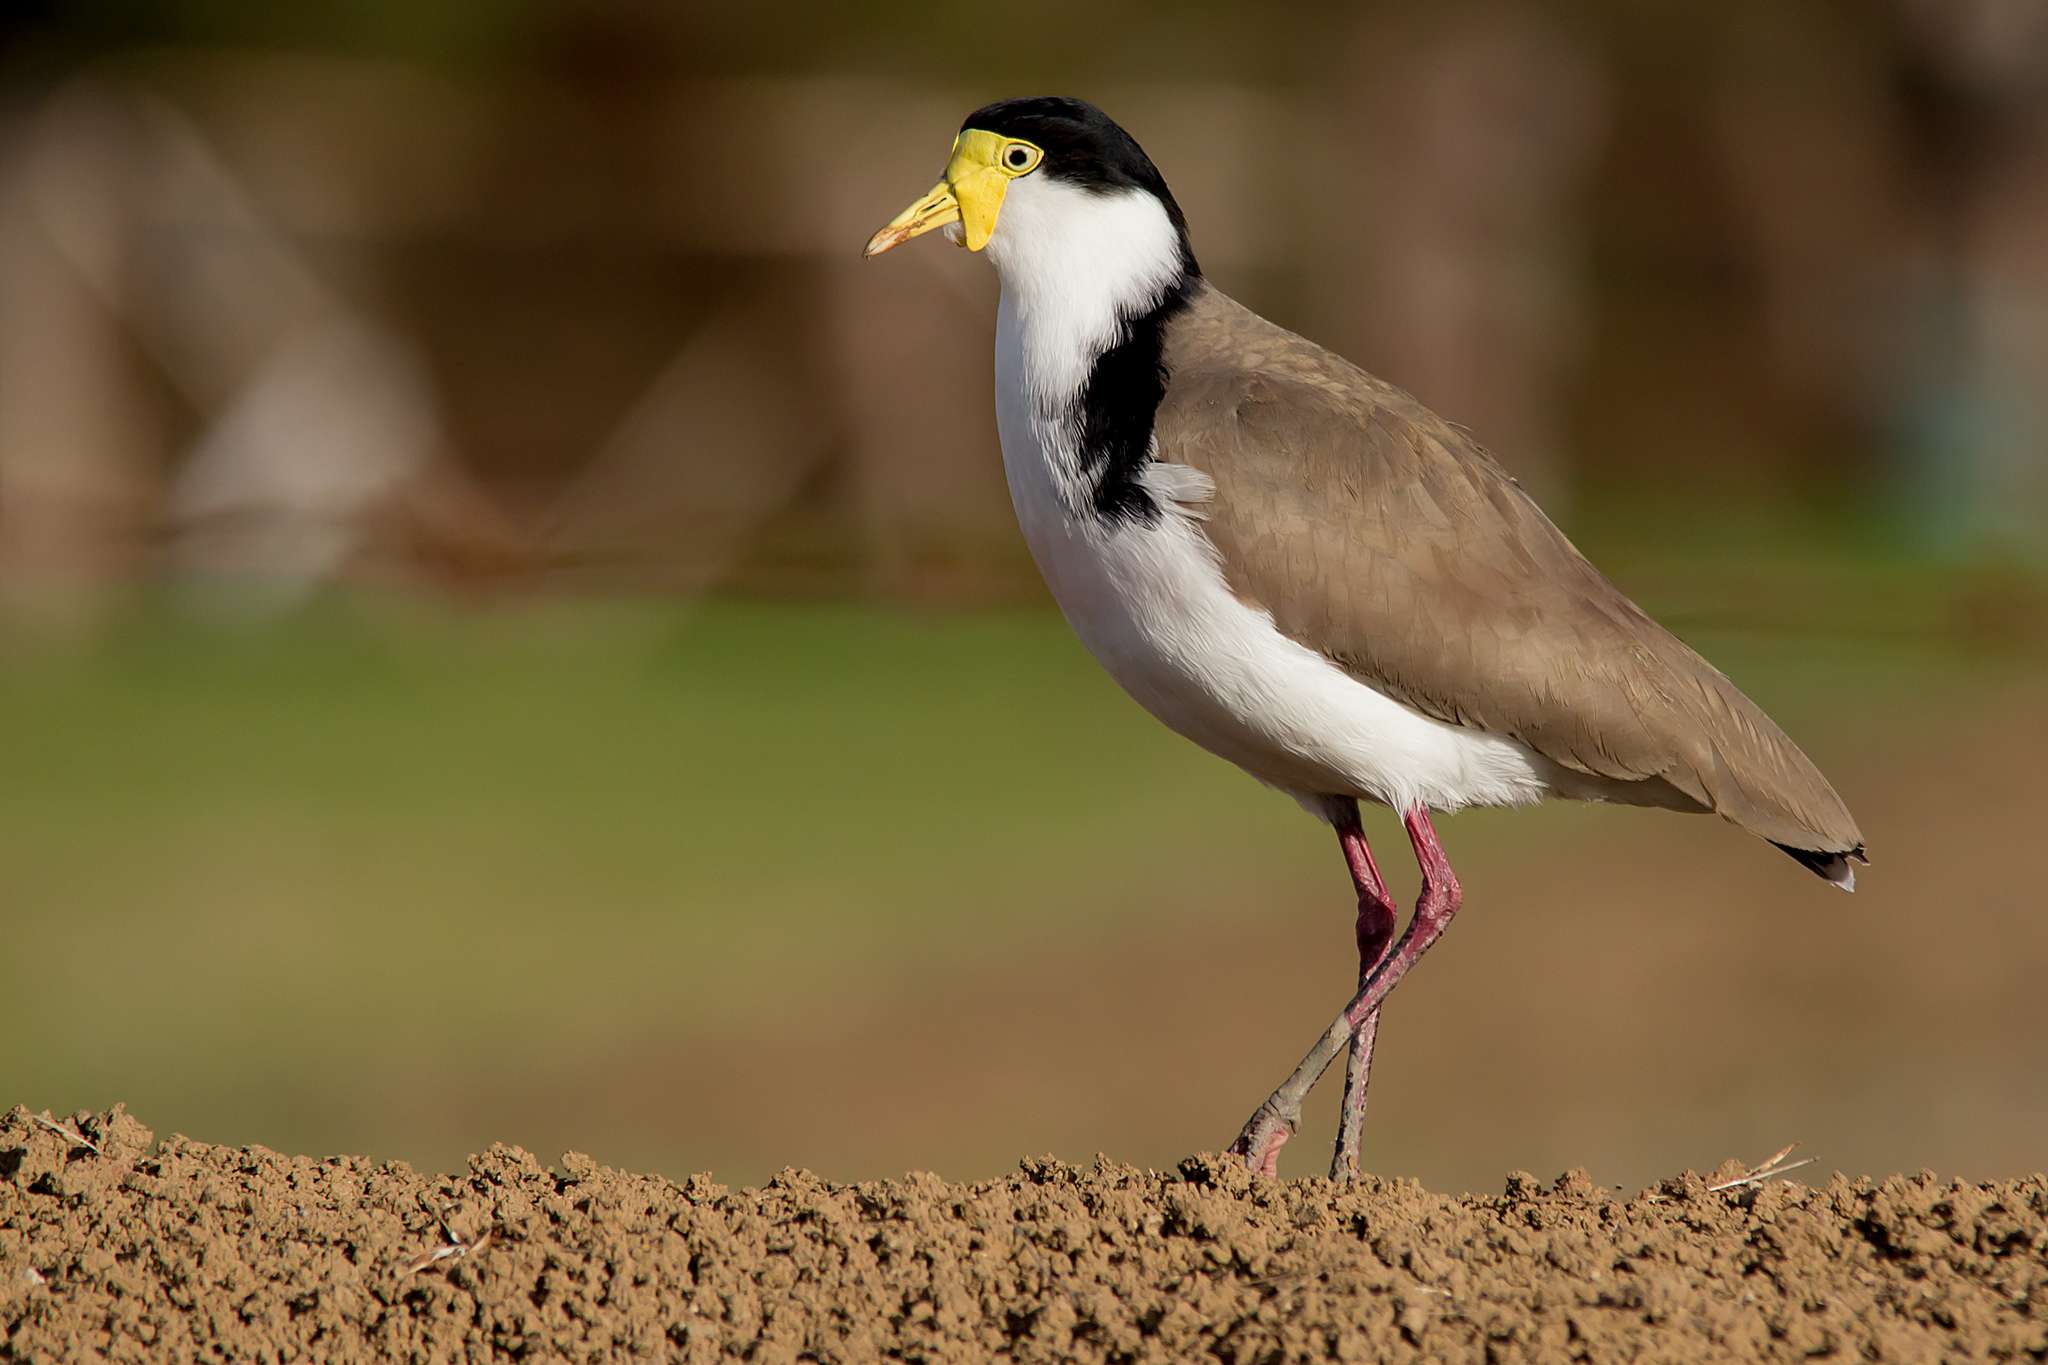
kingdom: Animalia
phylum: Chordata
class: Aves
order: Charadriiformes
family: Charadriidae
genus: Vanellus
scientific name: Vanellus miles
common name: Masked lapwing
